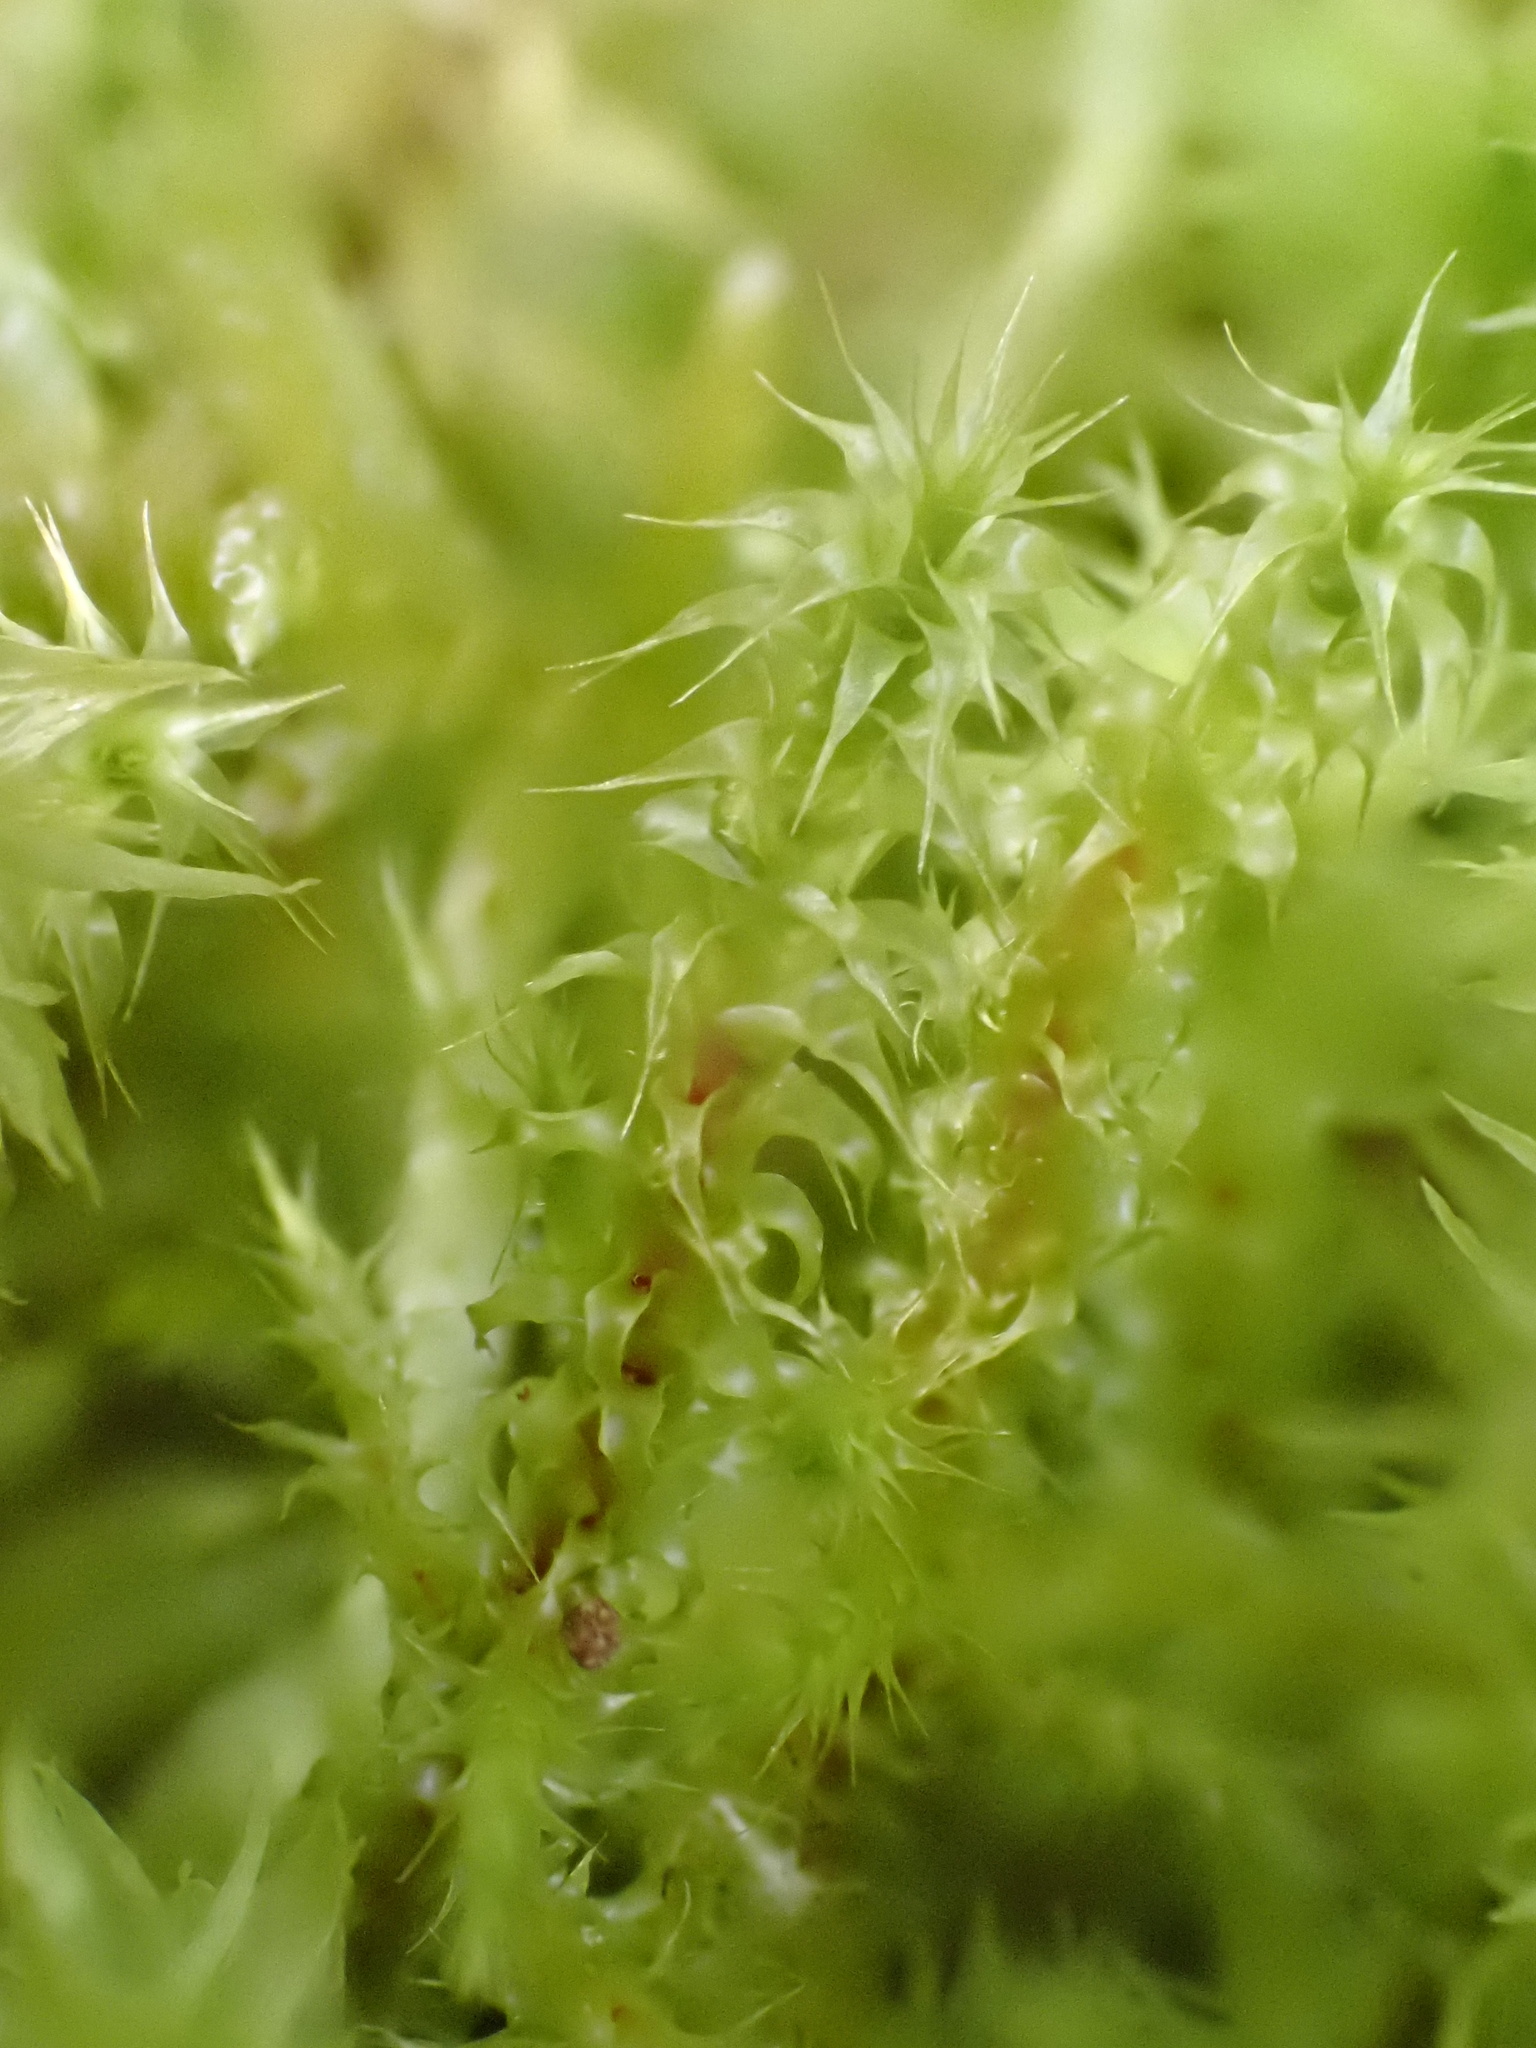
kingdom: Plantae
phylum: Bryophyta
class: Bryopsida
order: Hypnales
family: Hylocomiaceae
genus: Hylocomiadelphus
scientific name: Hylocomiadelphus triquetrus
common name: Rough goose neck moss
